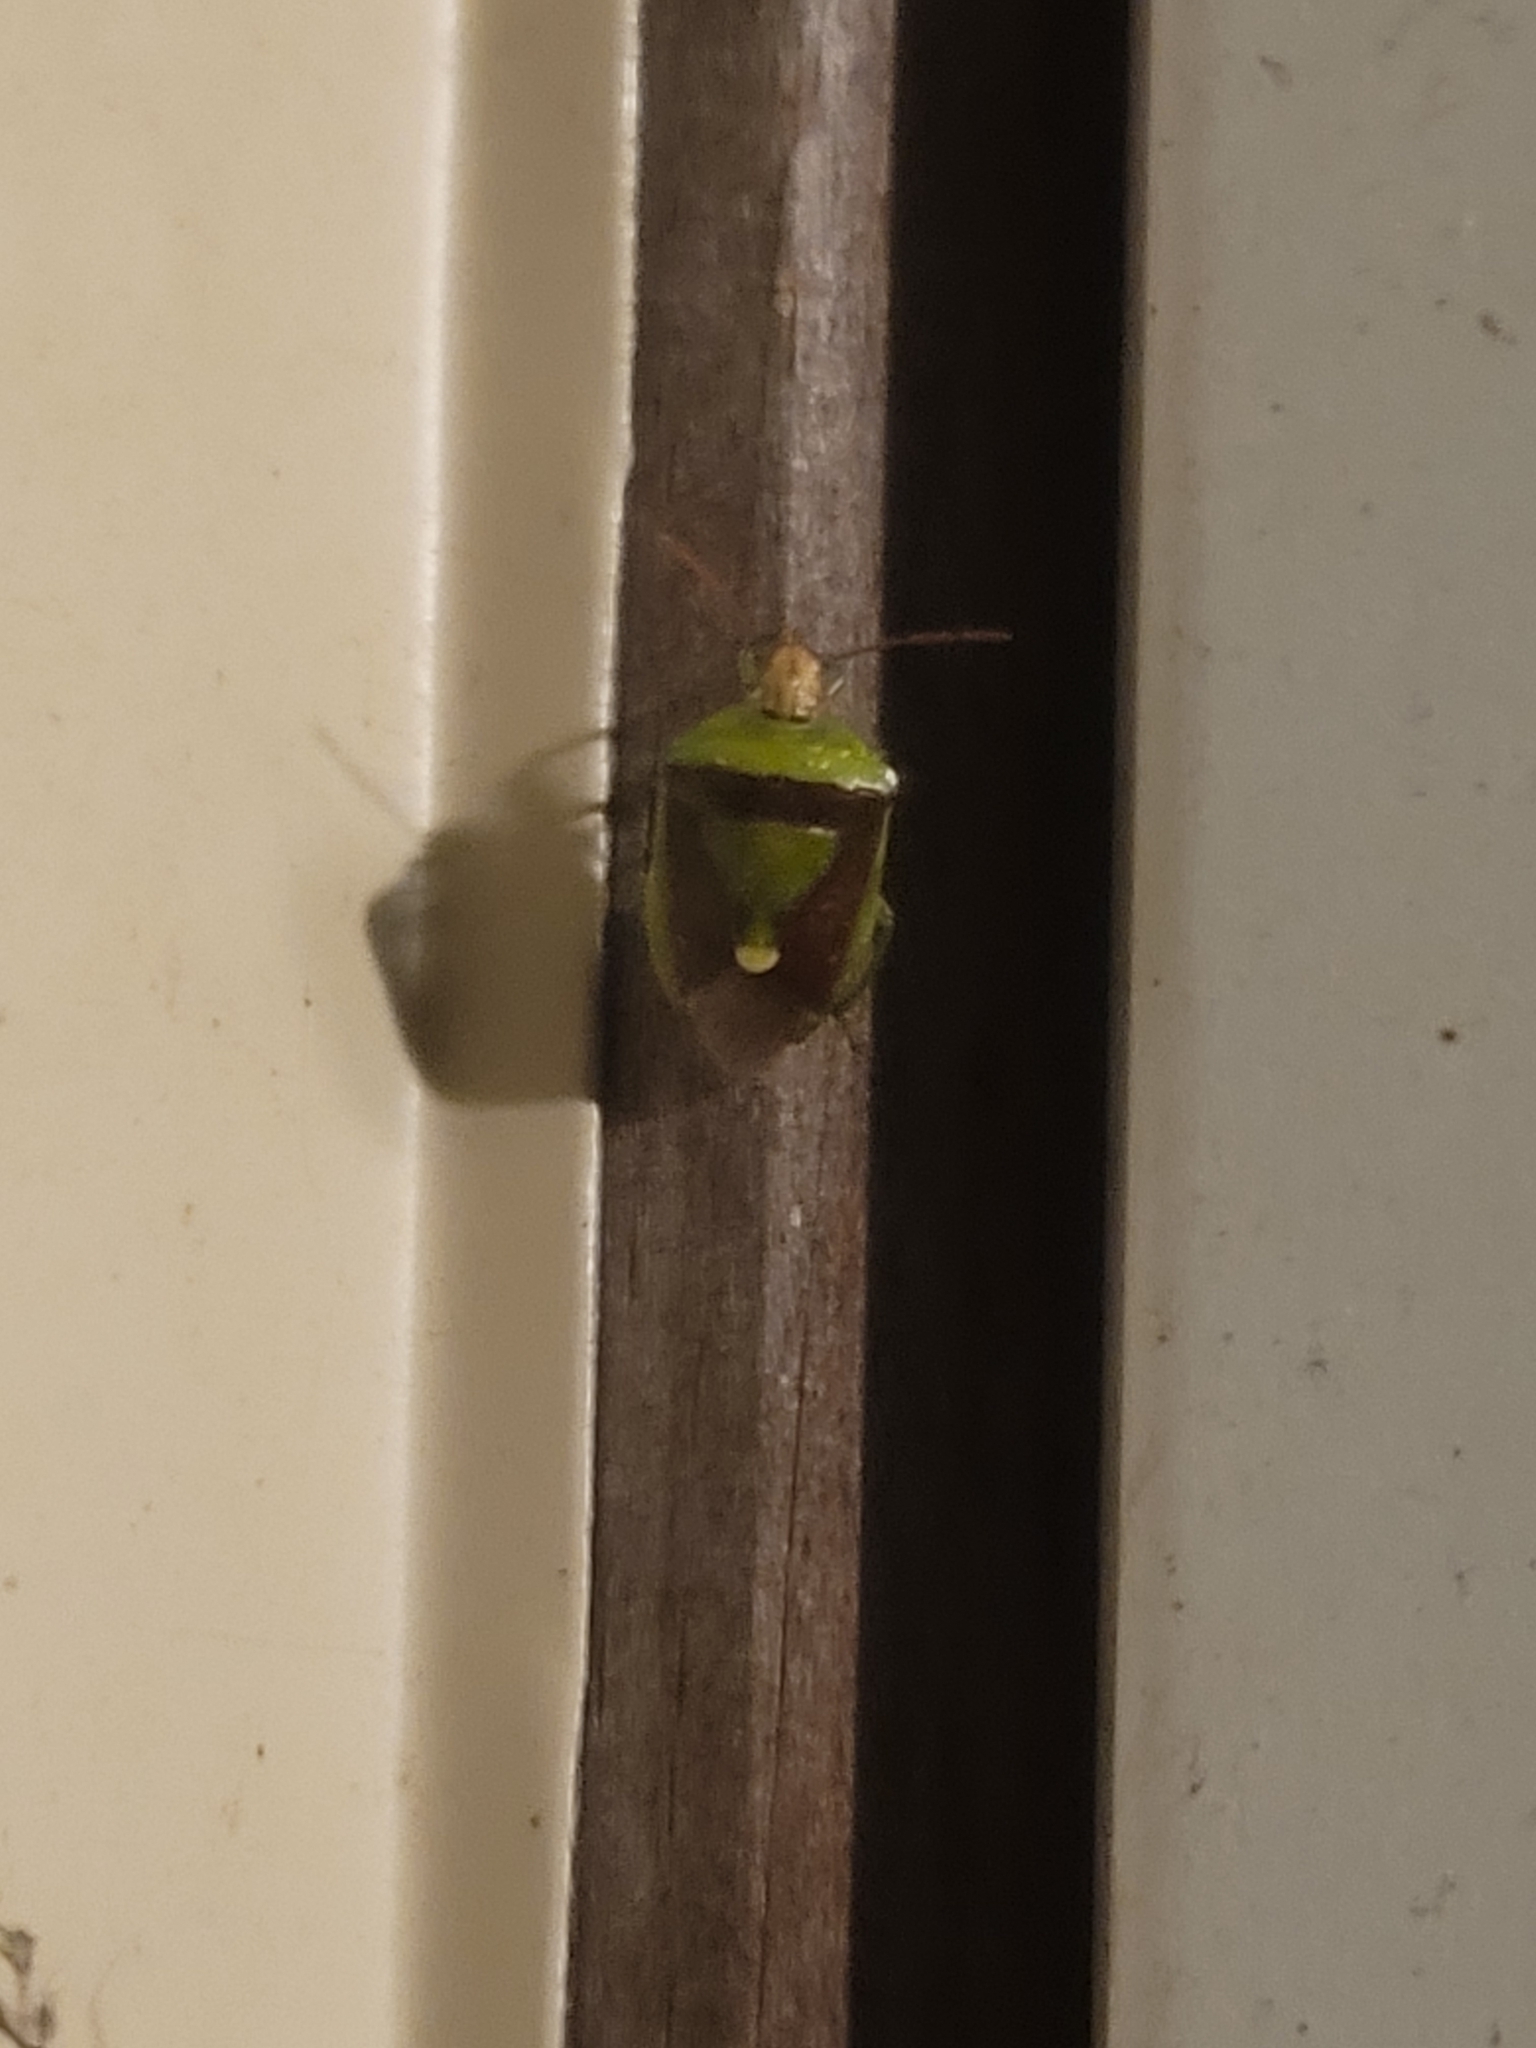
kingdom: Animalia
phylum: Arthropoda
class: Insecta
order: Hemiptera
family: Pentatomidae
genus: Banasa
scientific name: Banasa dimidiata
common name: Green burgundy stink bug
